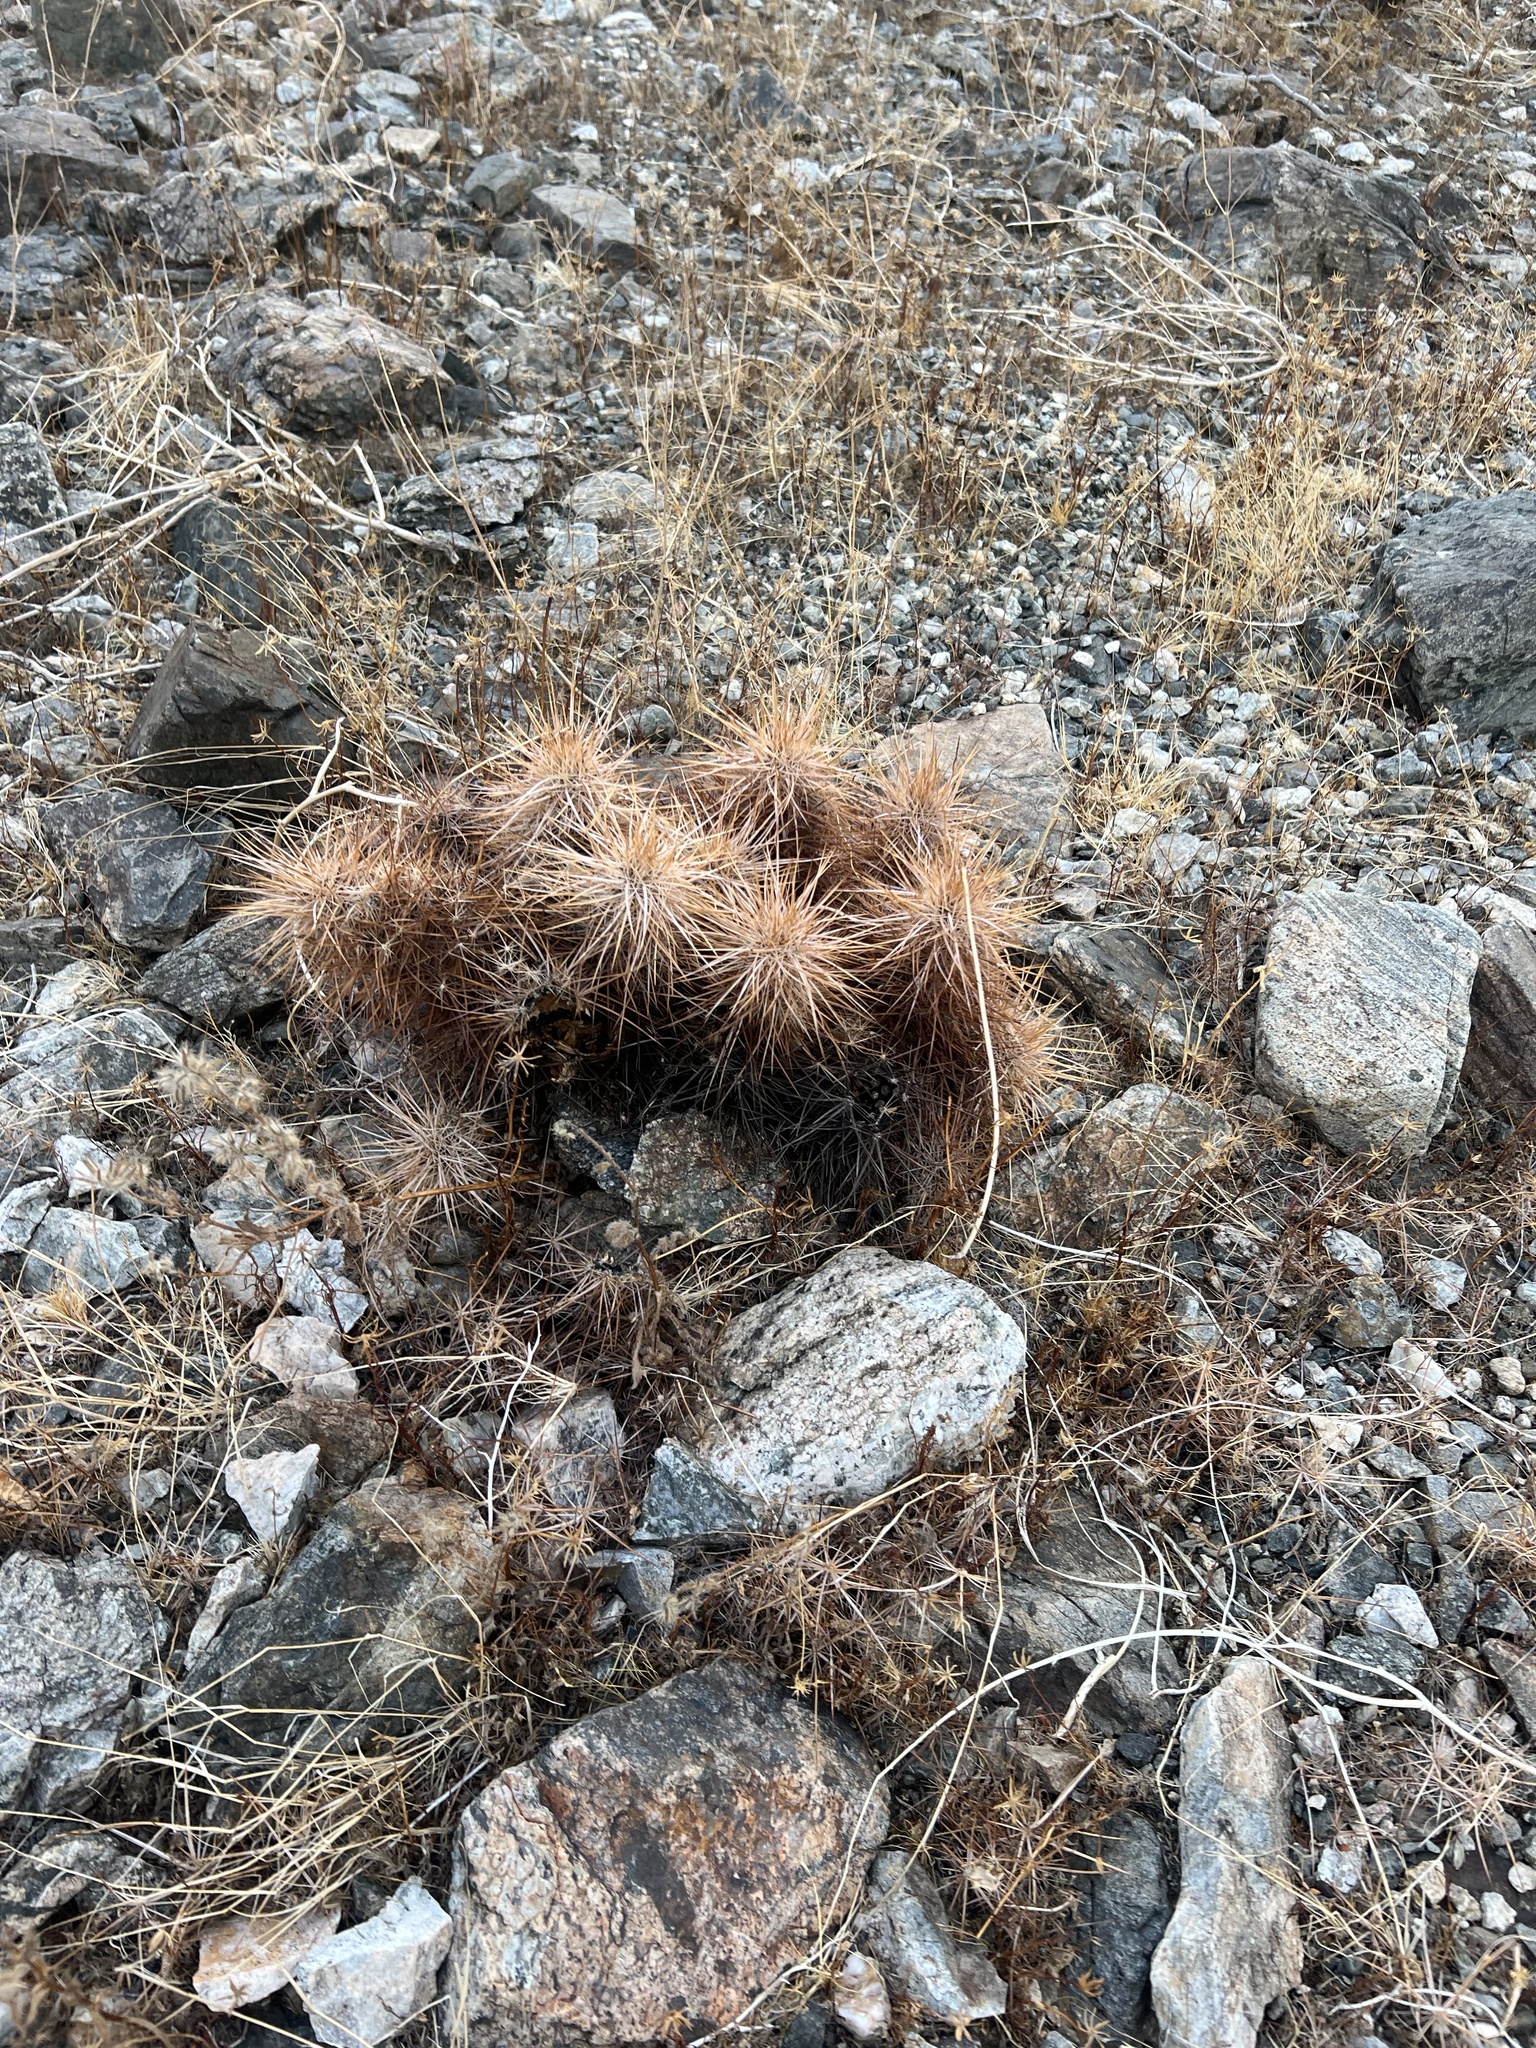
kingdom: Plantae
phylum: Tracheophyta
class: Magnoliopsida
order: Caryophyllales
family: Cactaceae
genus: Echinocereus
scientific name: Echinocereus engelmannii
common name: Engelmann's hedgehog cactus
